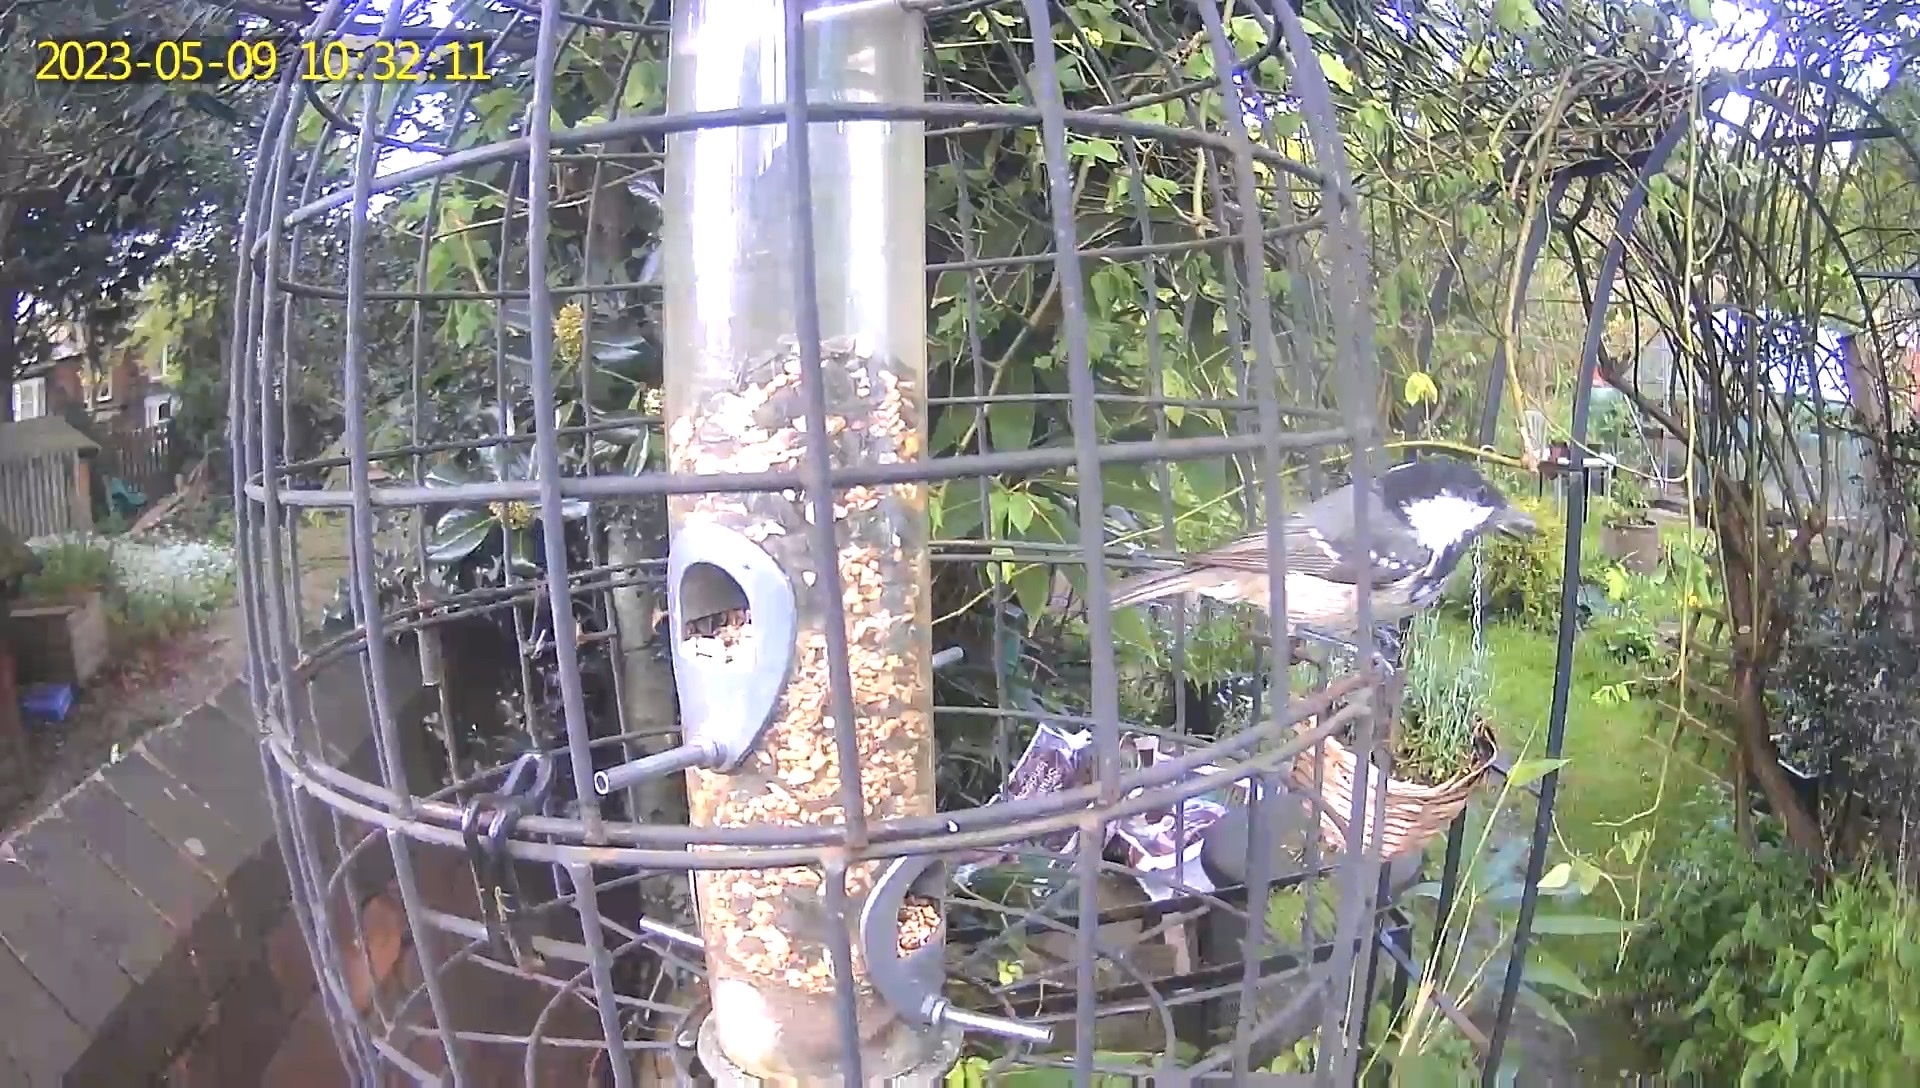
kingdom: Animalia
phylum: Chordata
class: Aves
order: Passeriformes
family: Paridae
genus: Periparus
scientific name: Periparus ater
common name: Coal tit
